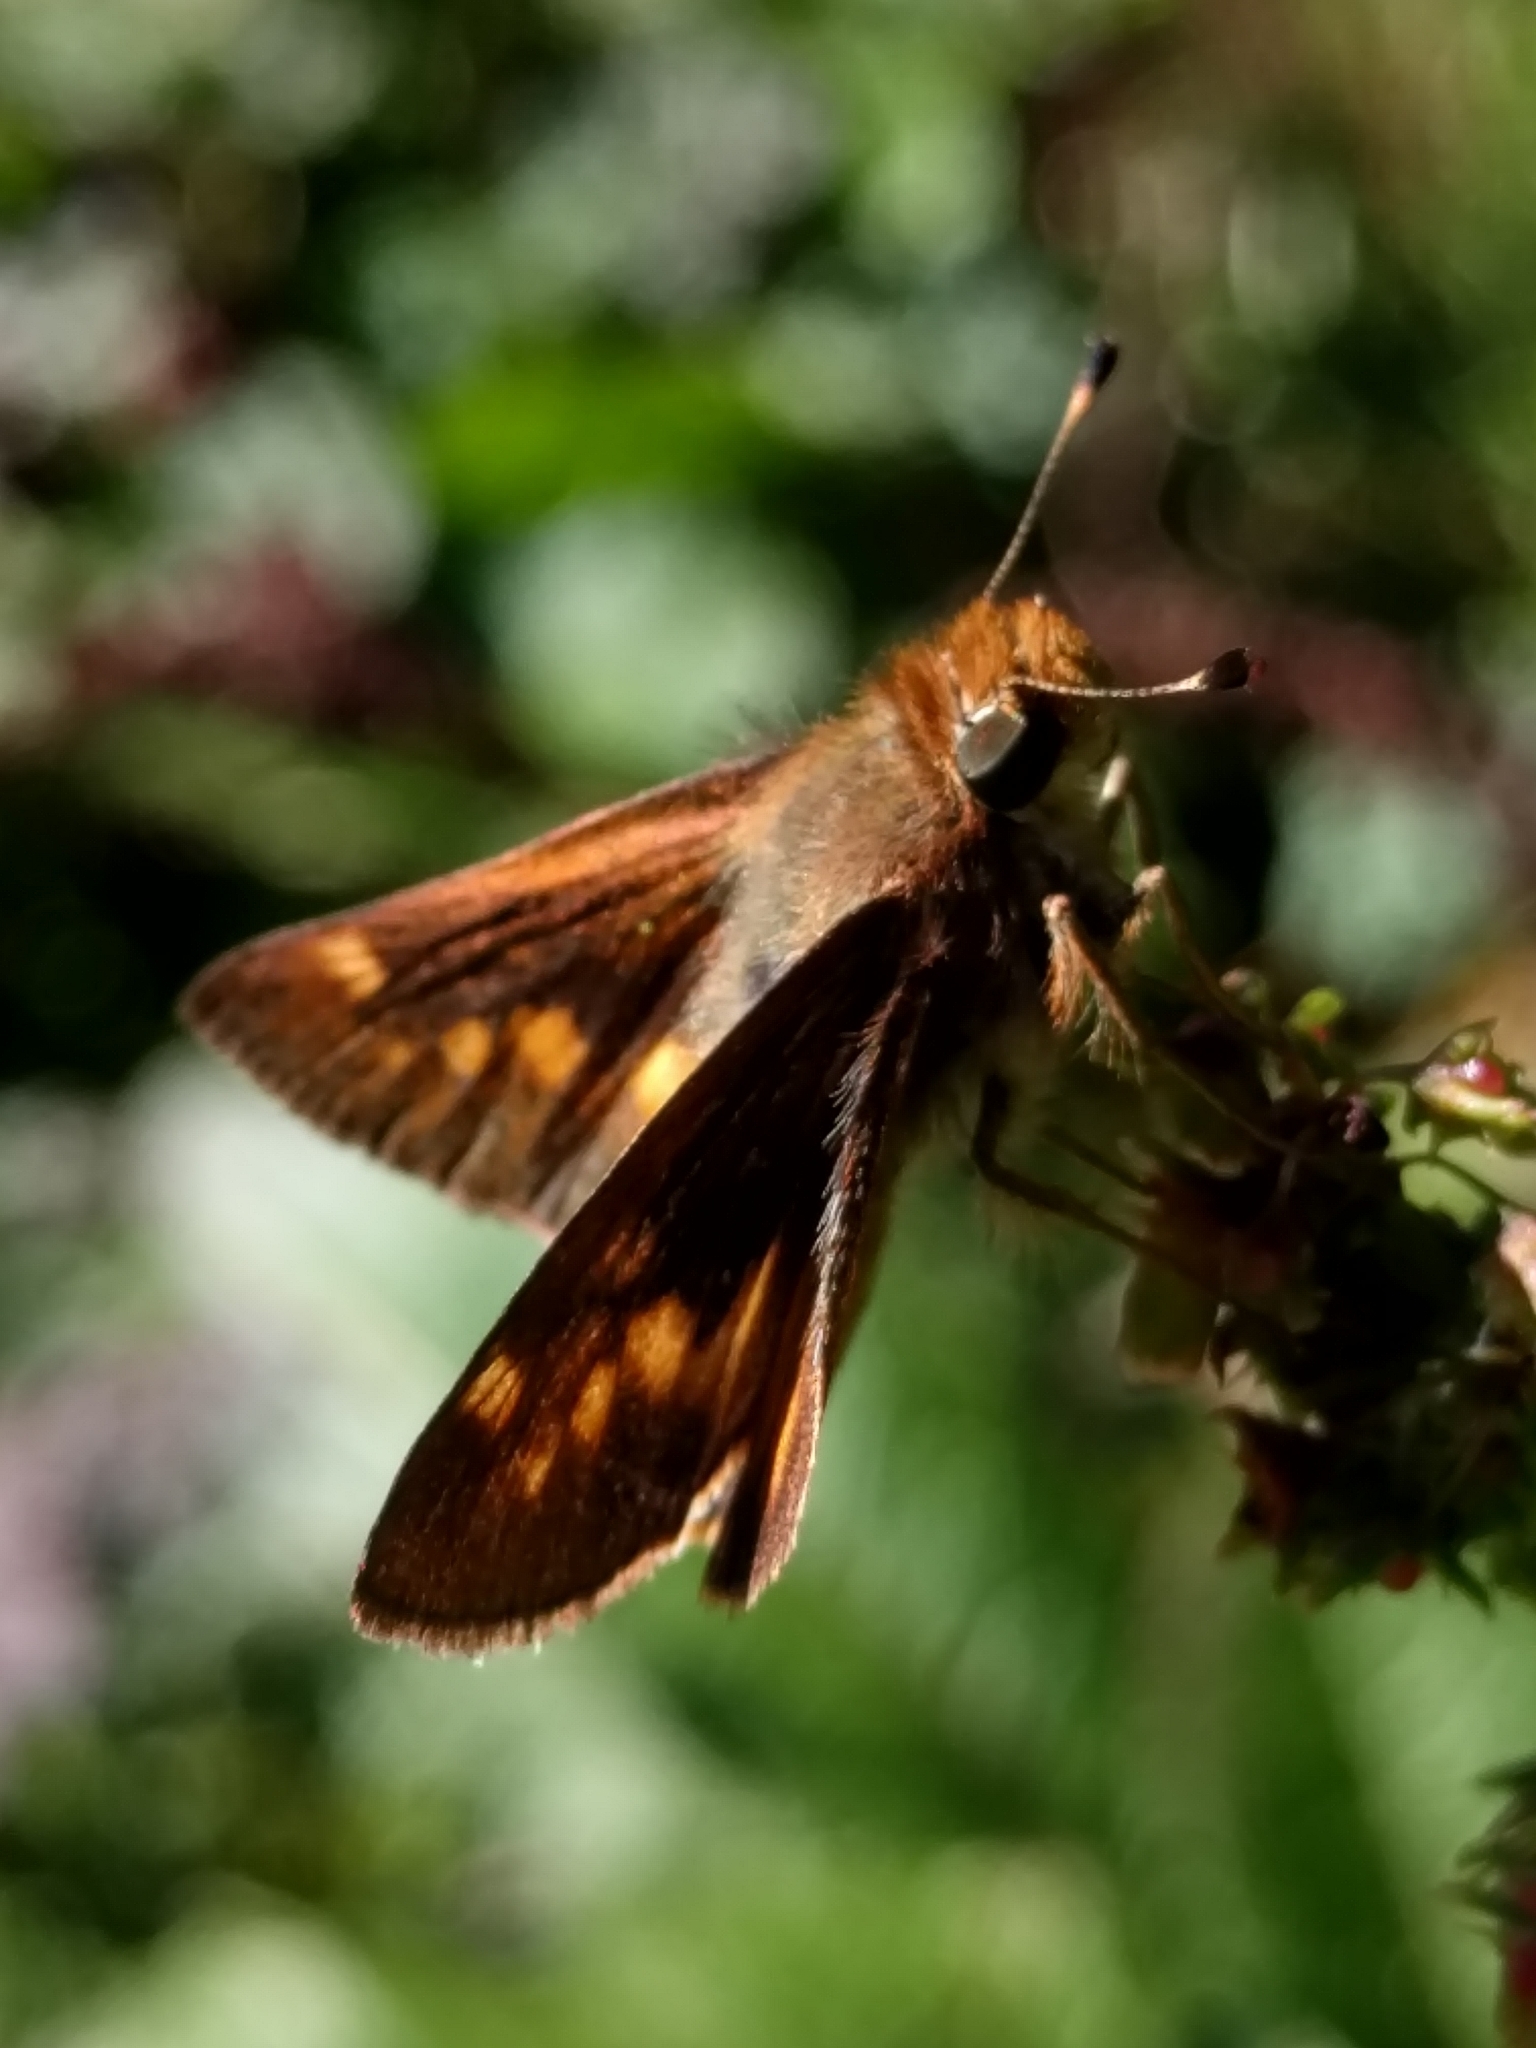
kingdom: Animalia
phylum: Arthropoda
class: Insecta
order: Lepidoptera
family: Hesperiidae
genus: Lon
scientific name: Lon melane
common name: Umber skipper
